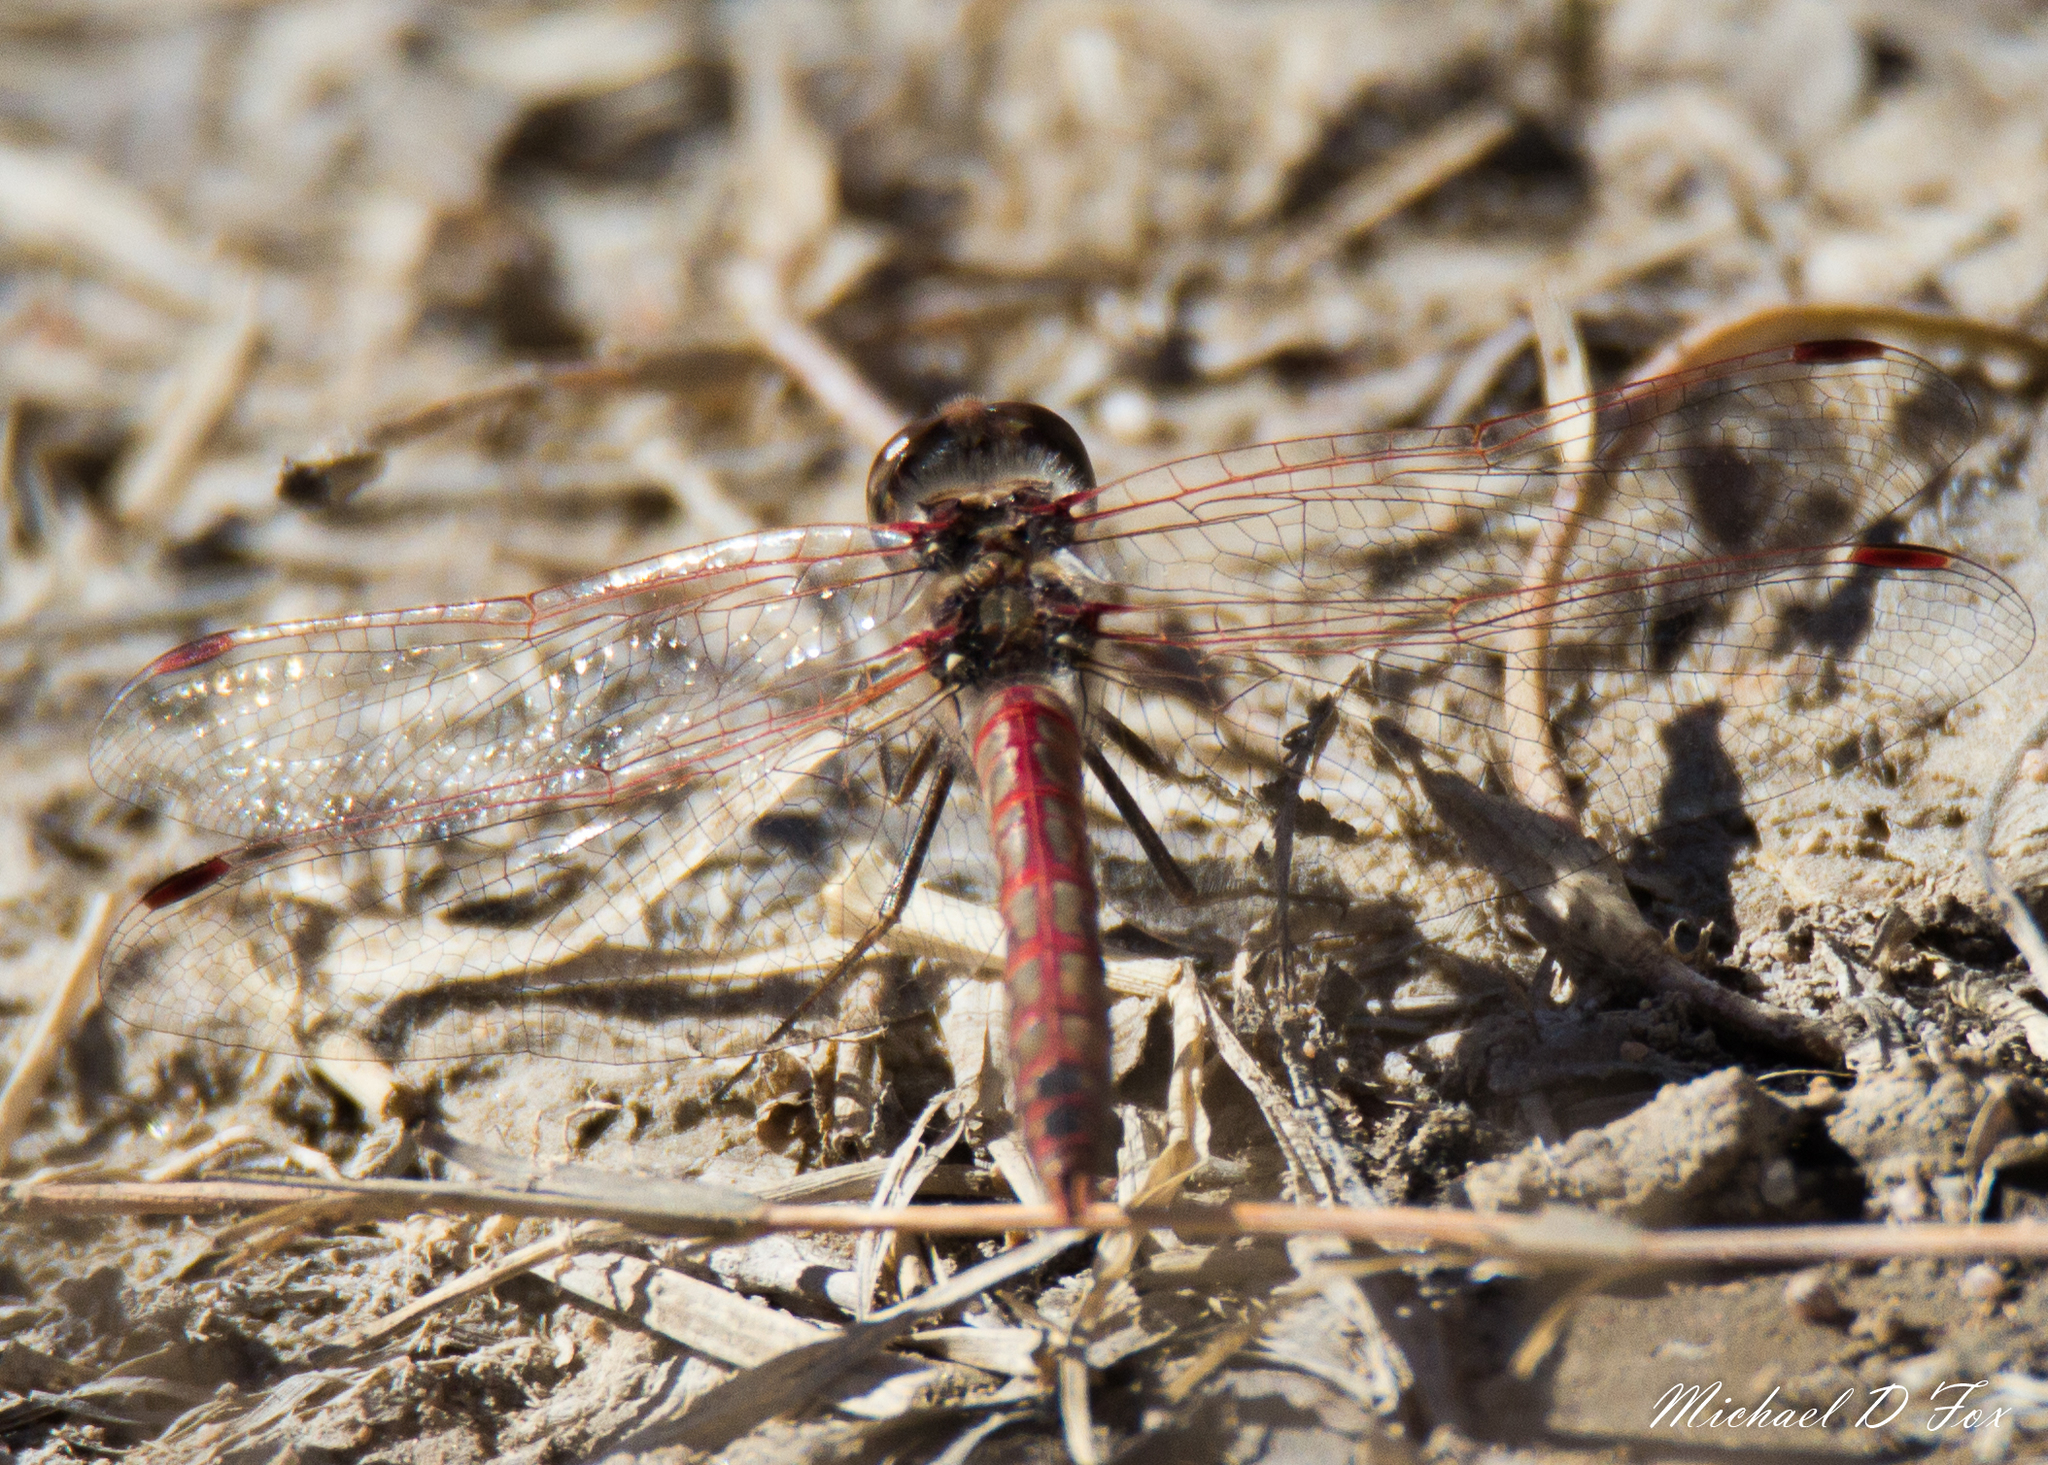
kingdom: Animalia
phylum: Arthropoda
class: Insecta
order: Odonata
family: Libellulidae
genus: Sympetrum
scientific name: Sympetrum corruptum
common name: Variegated meadowhawk
